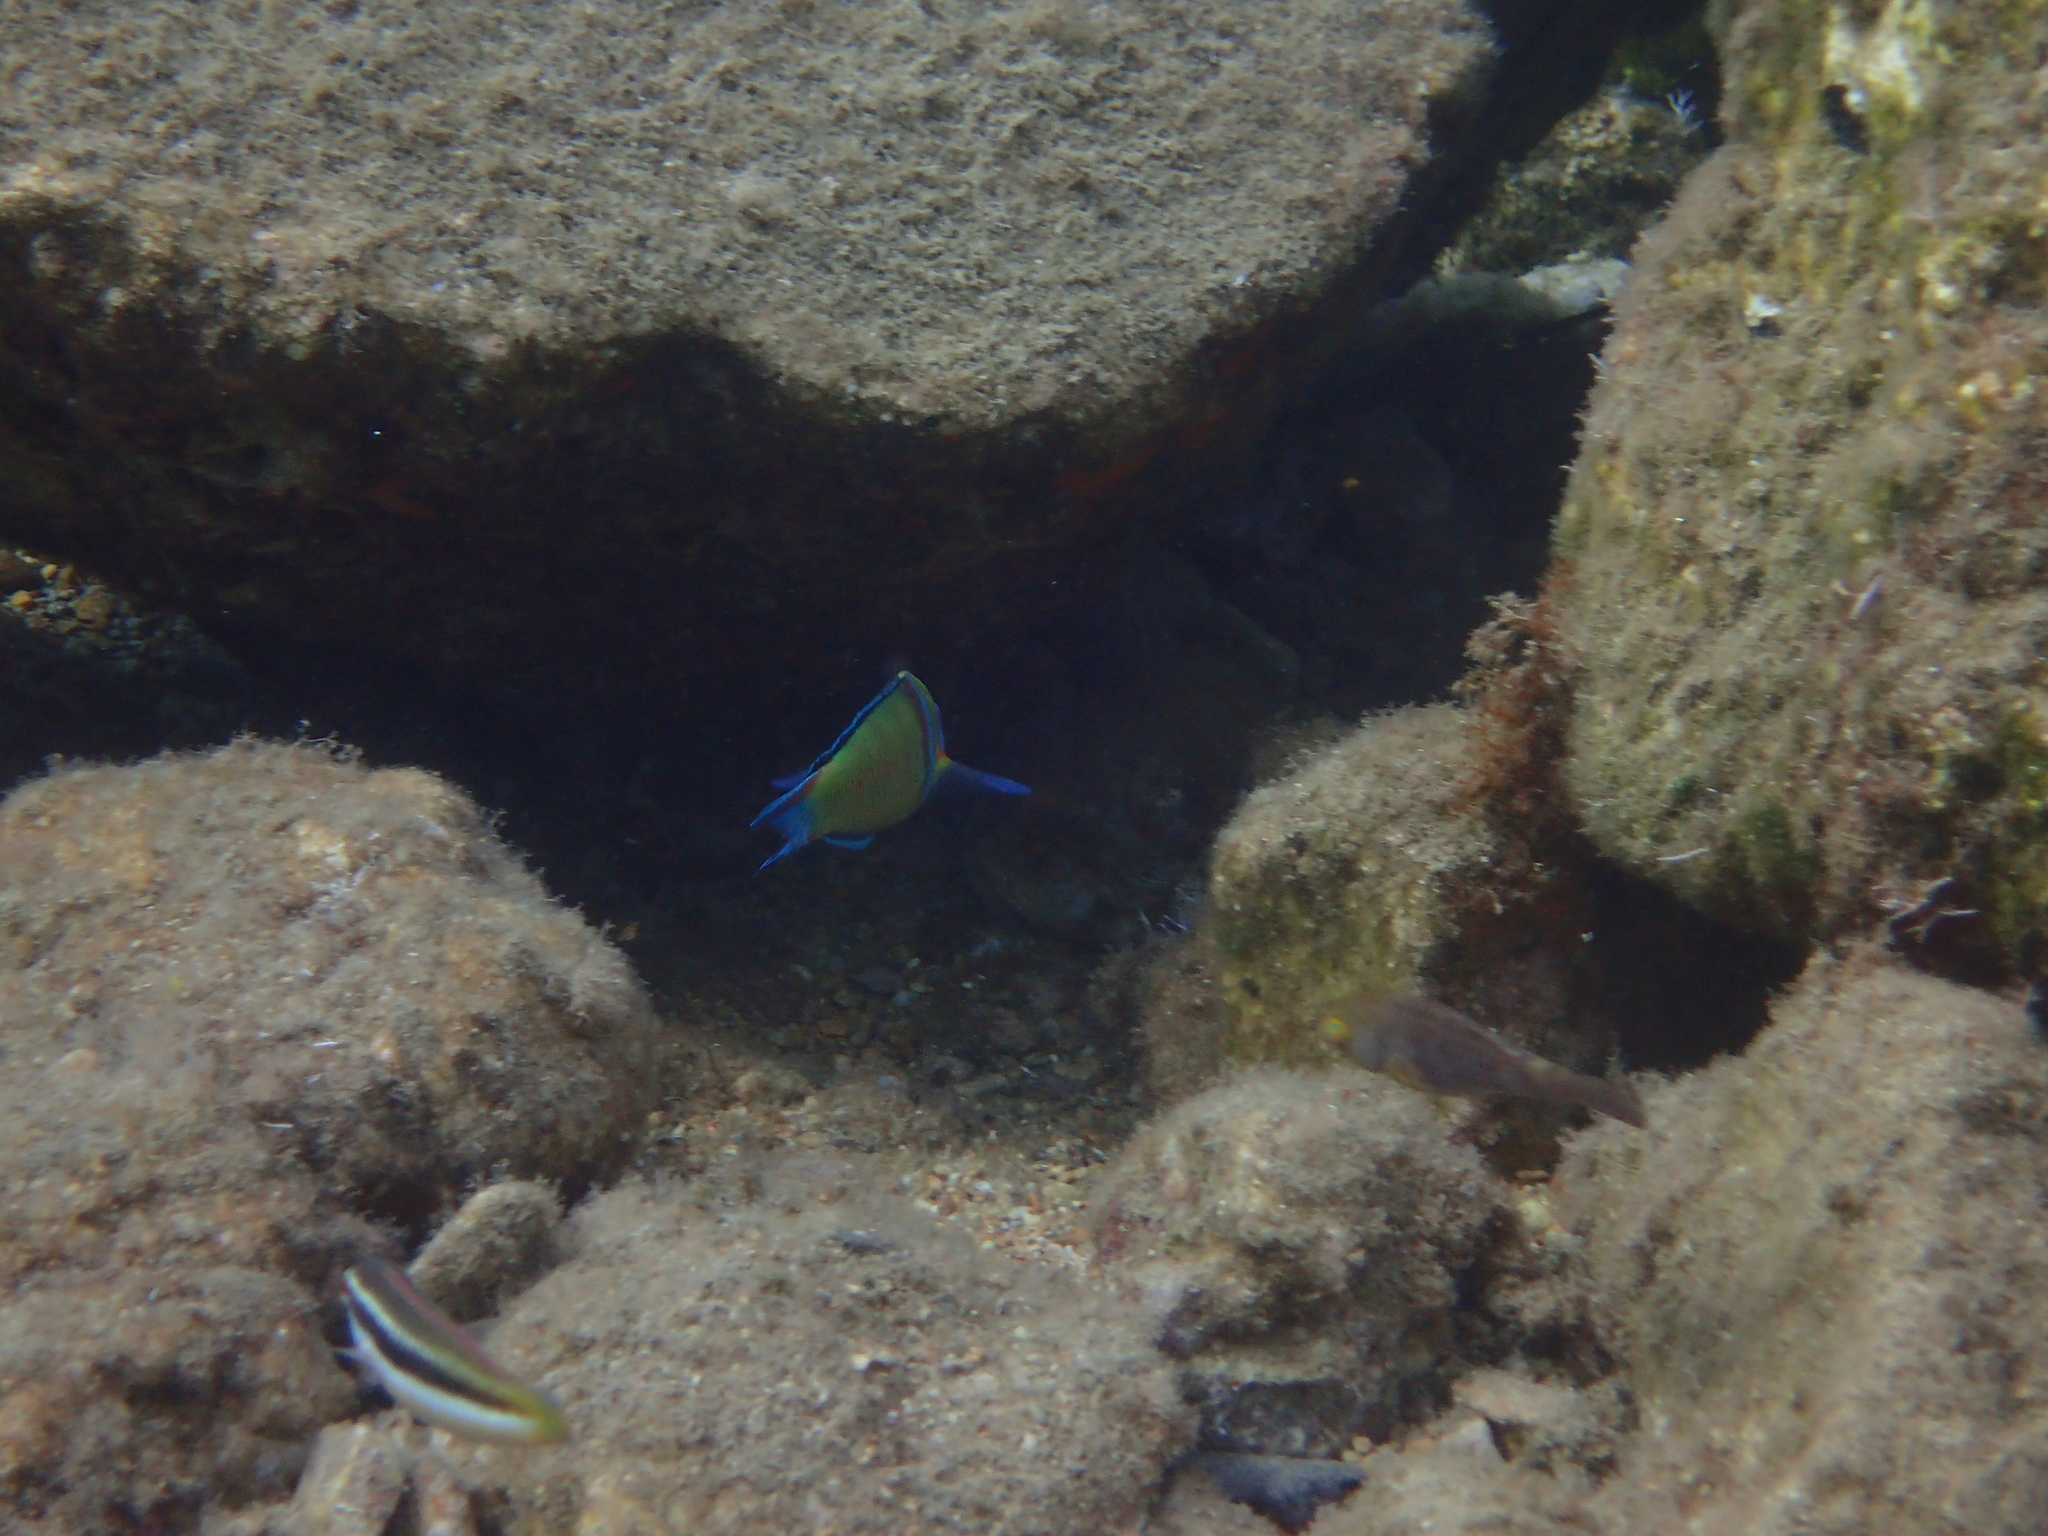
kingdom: Animalia
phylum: Chordata
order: Perciformes
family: Labridae
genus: Coris
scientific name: Coris julis
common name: Rainbow wrasse
